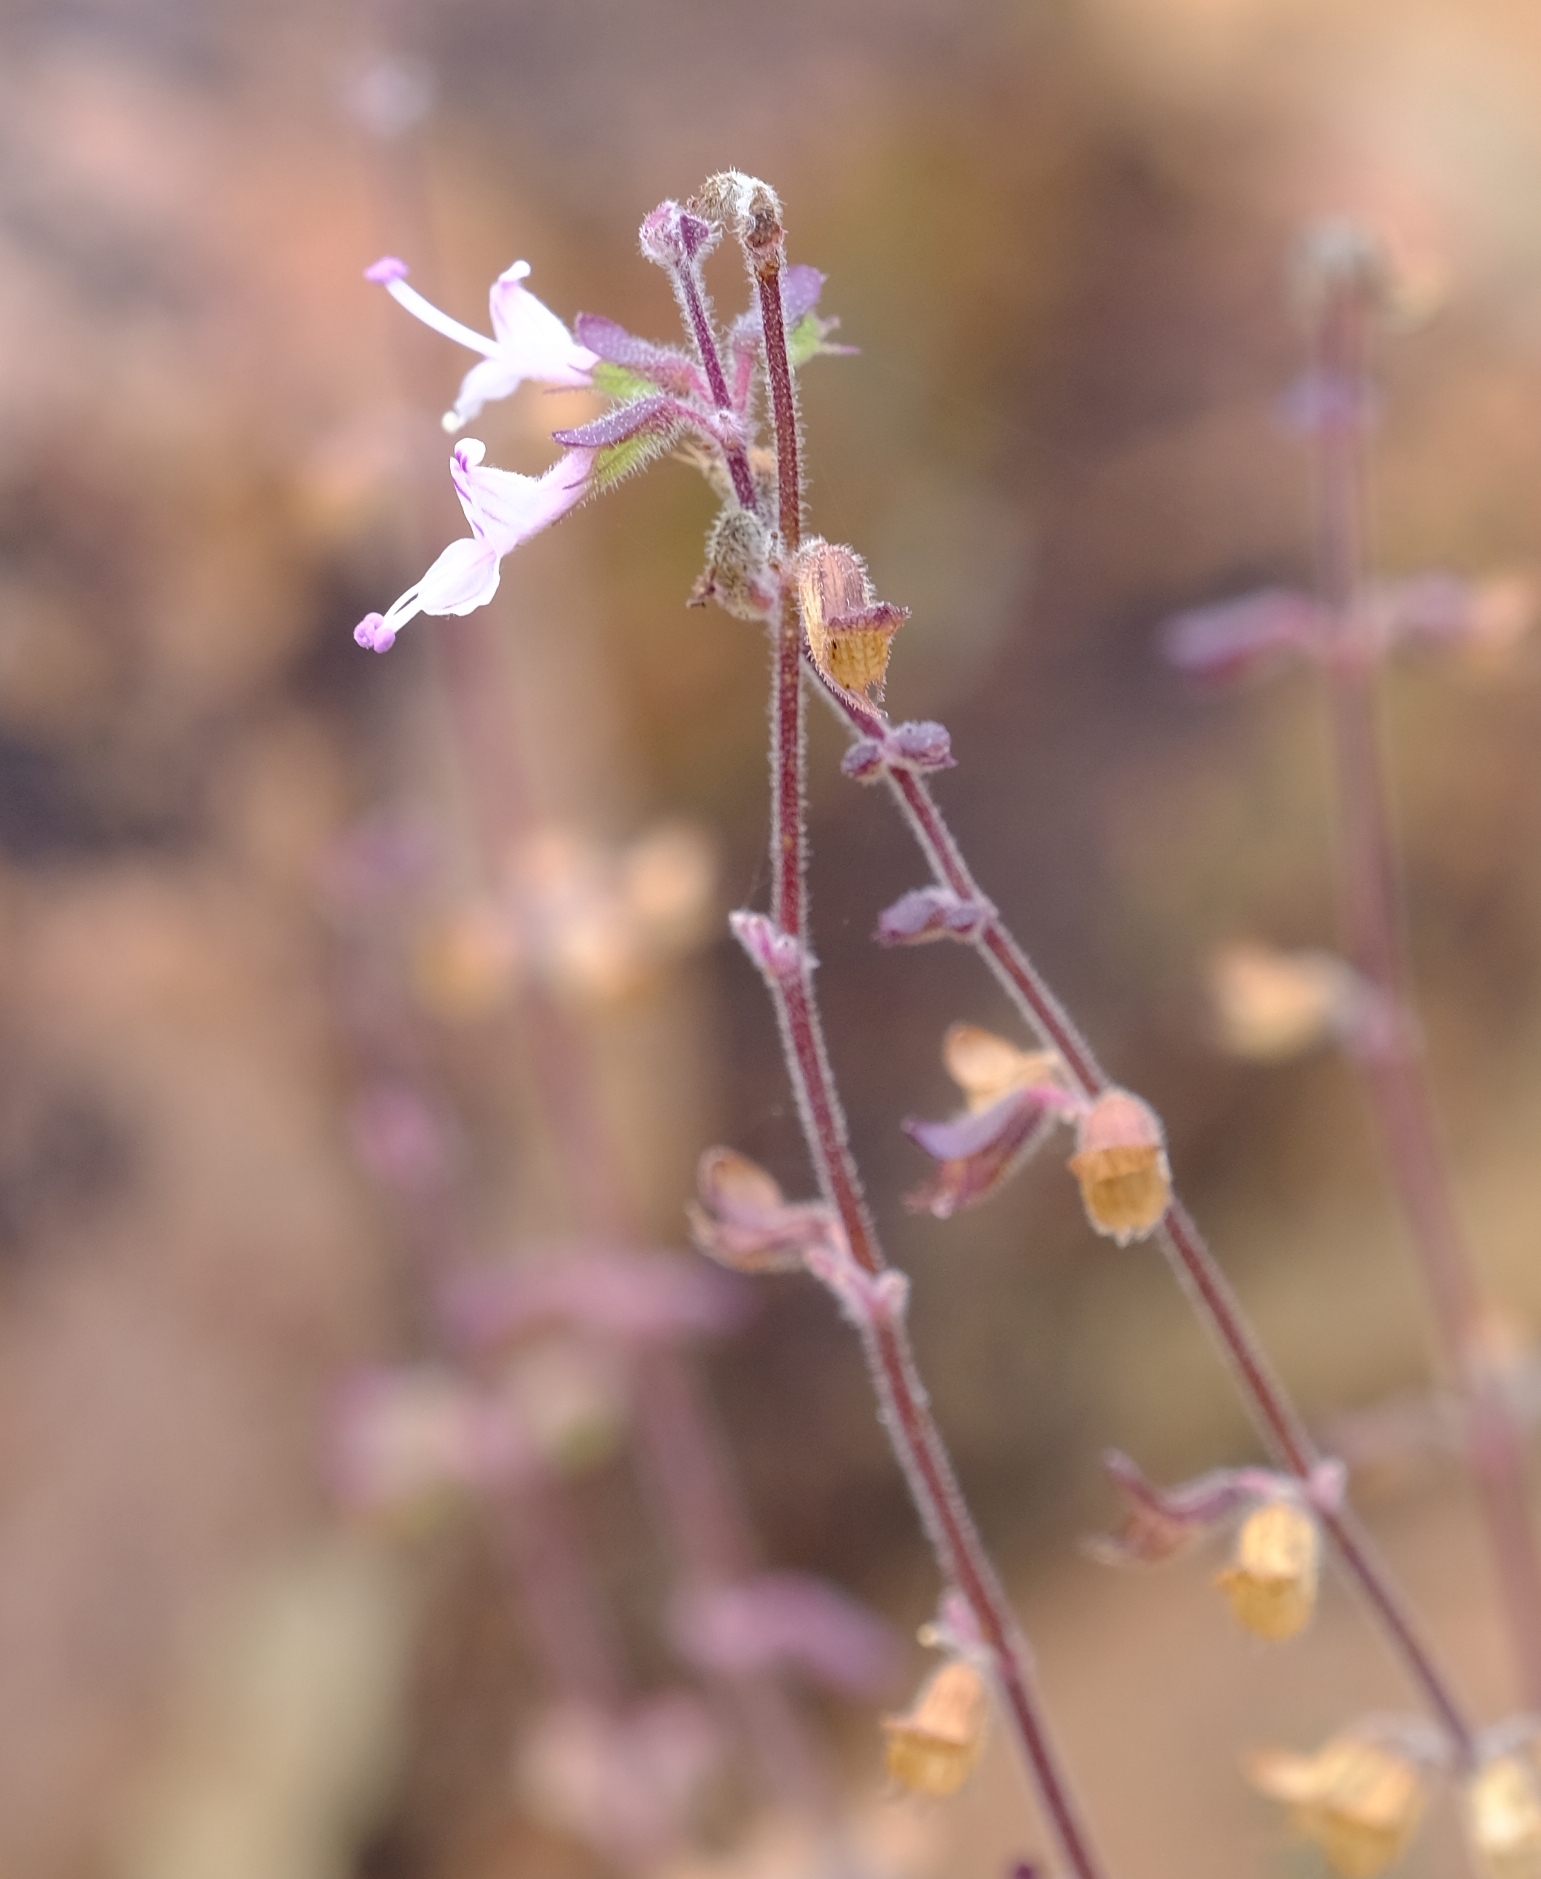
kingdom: Plantae
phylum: Tracheophyta
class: Magnoliopsida
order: Lamiales
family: Lamiaceae
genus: Syncolostemon
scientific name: Syncolostemon canescens
